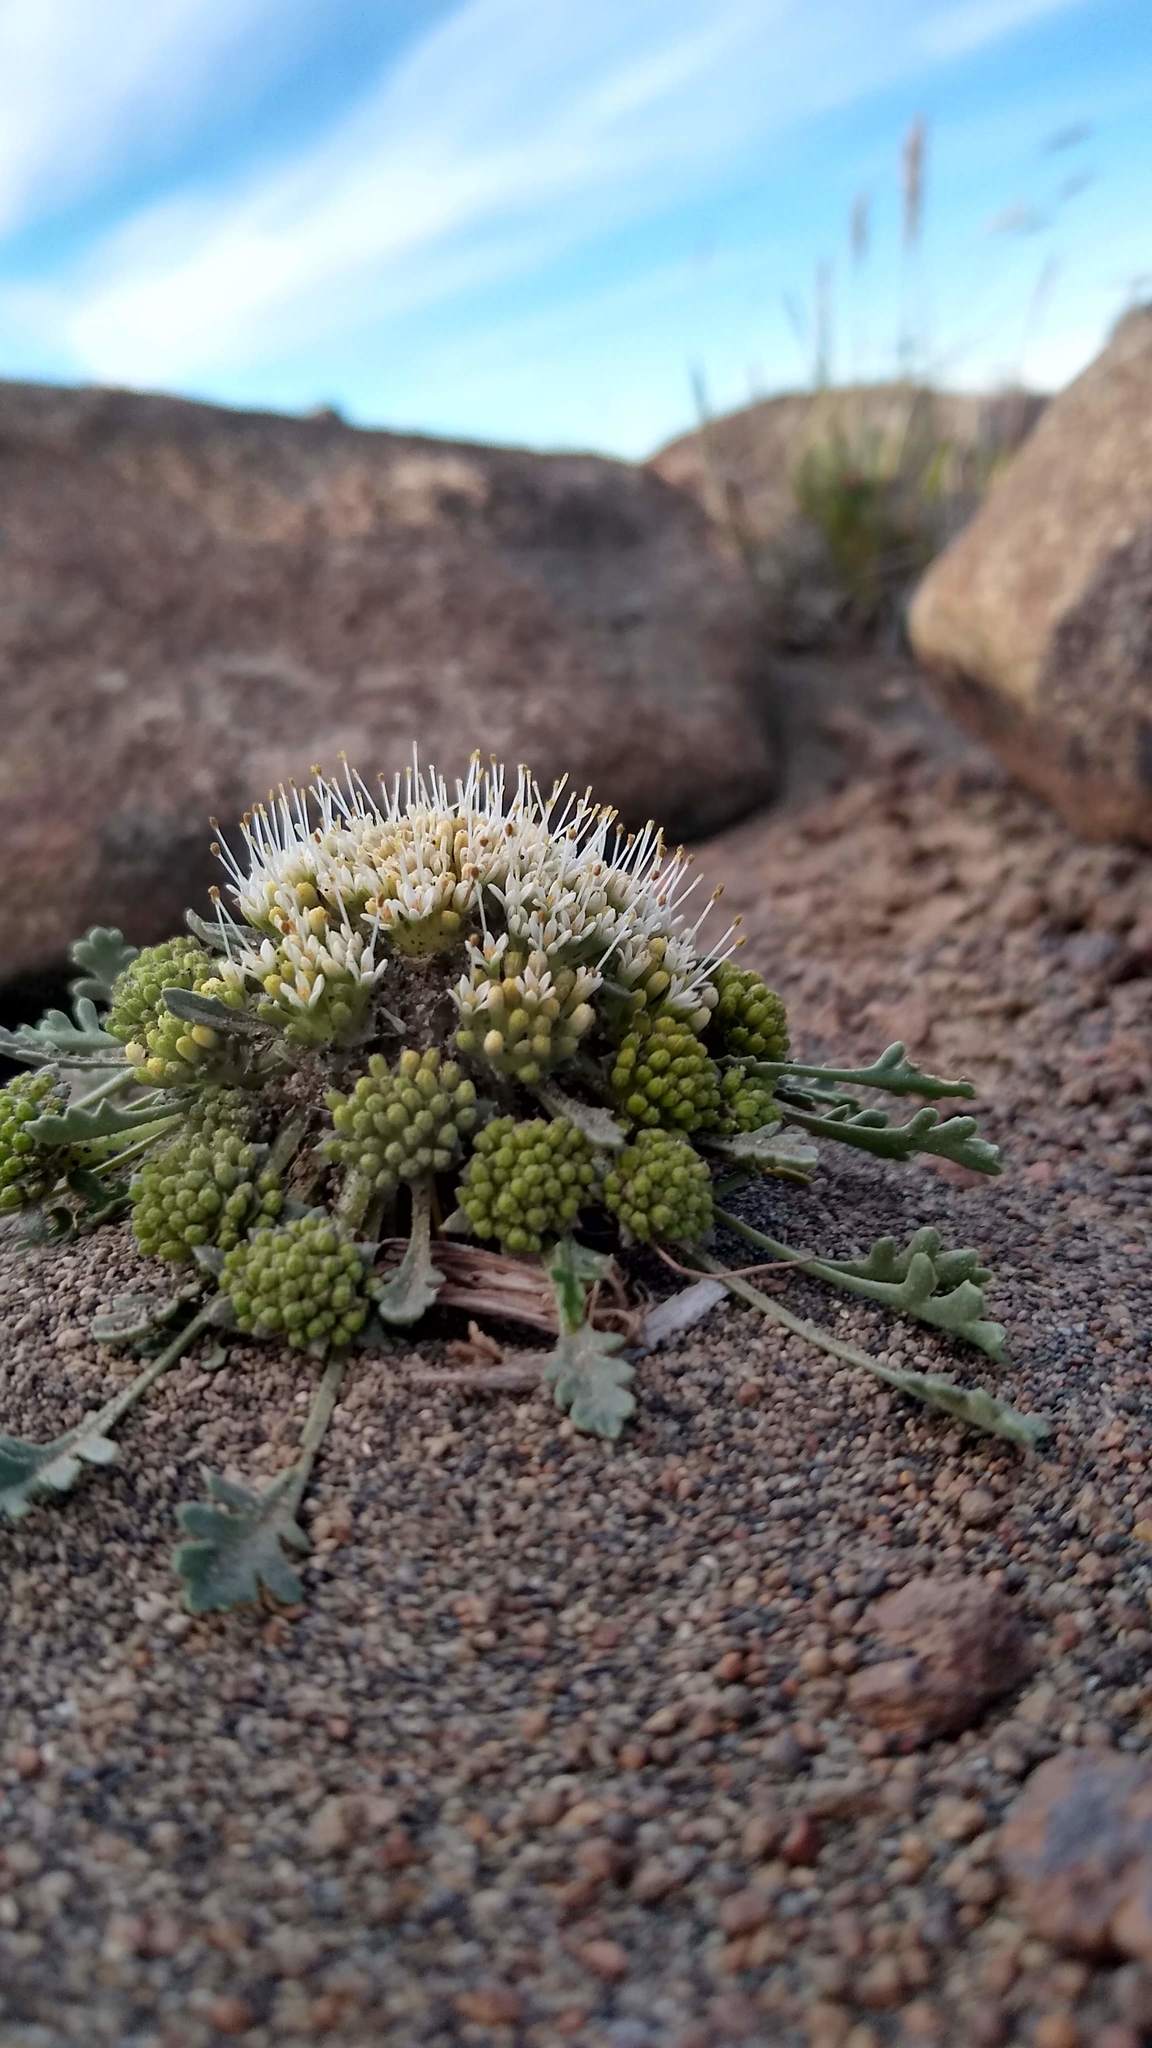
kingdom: Plantae
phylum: Tracheophyta
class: Magnoliopsida
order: Asterales
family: Calyceraceae
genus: Gamocarpha
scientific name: Gamocarpha selliana
